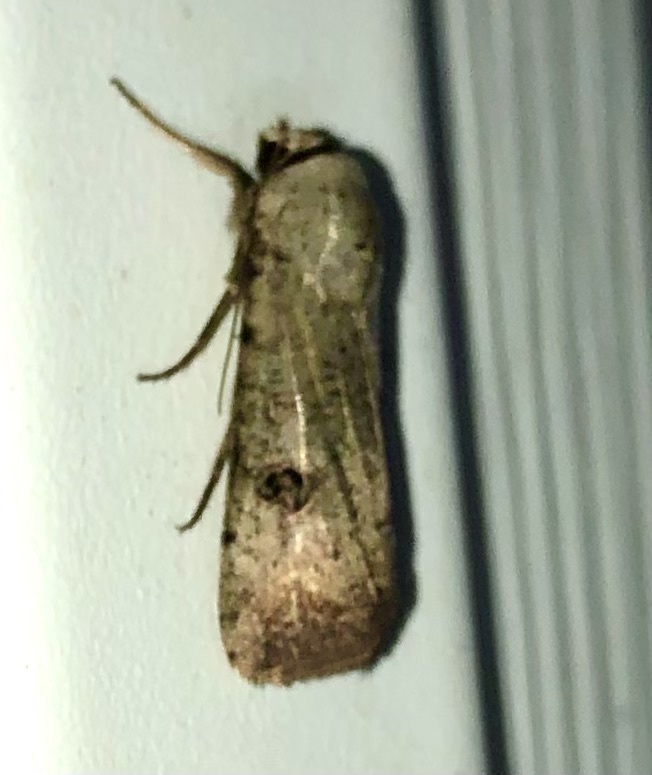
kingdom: Animalia
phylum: Arthropoda
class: Insecta
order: Lepidoptera
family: Noctuidae
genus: Anicla
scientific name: Anicla infecta
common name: Green cutworm
